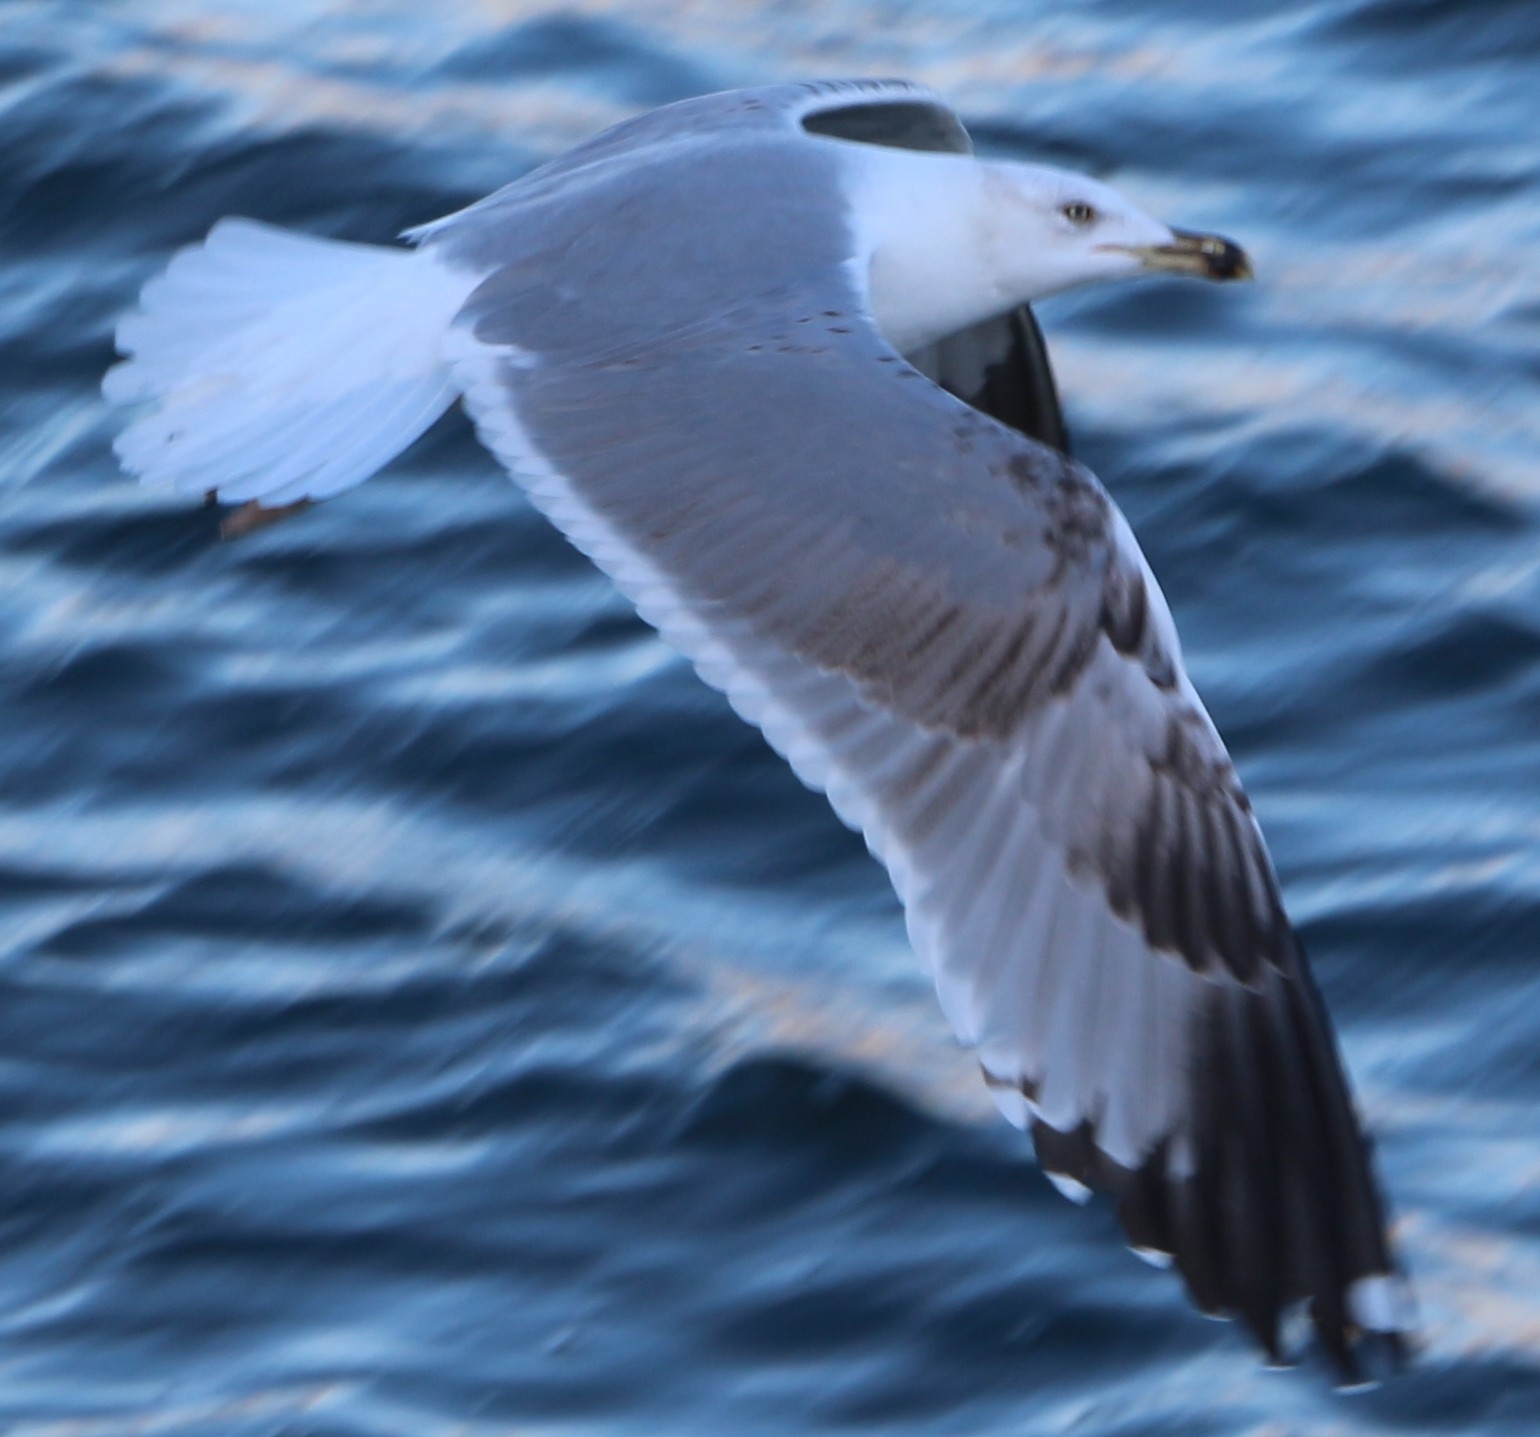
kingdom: Animalia
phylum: Chordata
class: Aves
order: Charadriiformes
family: Laridae
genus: Larus
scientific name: Larus michahellis
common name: Yellow-legged gull
